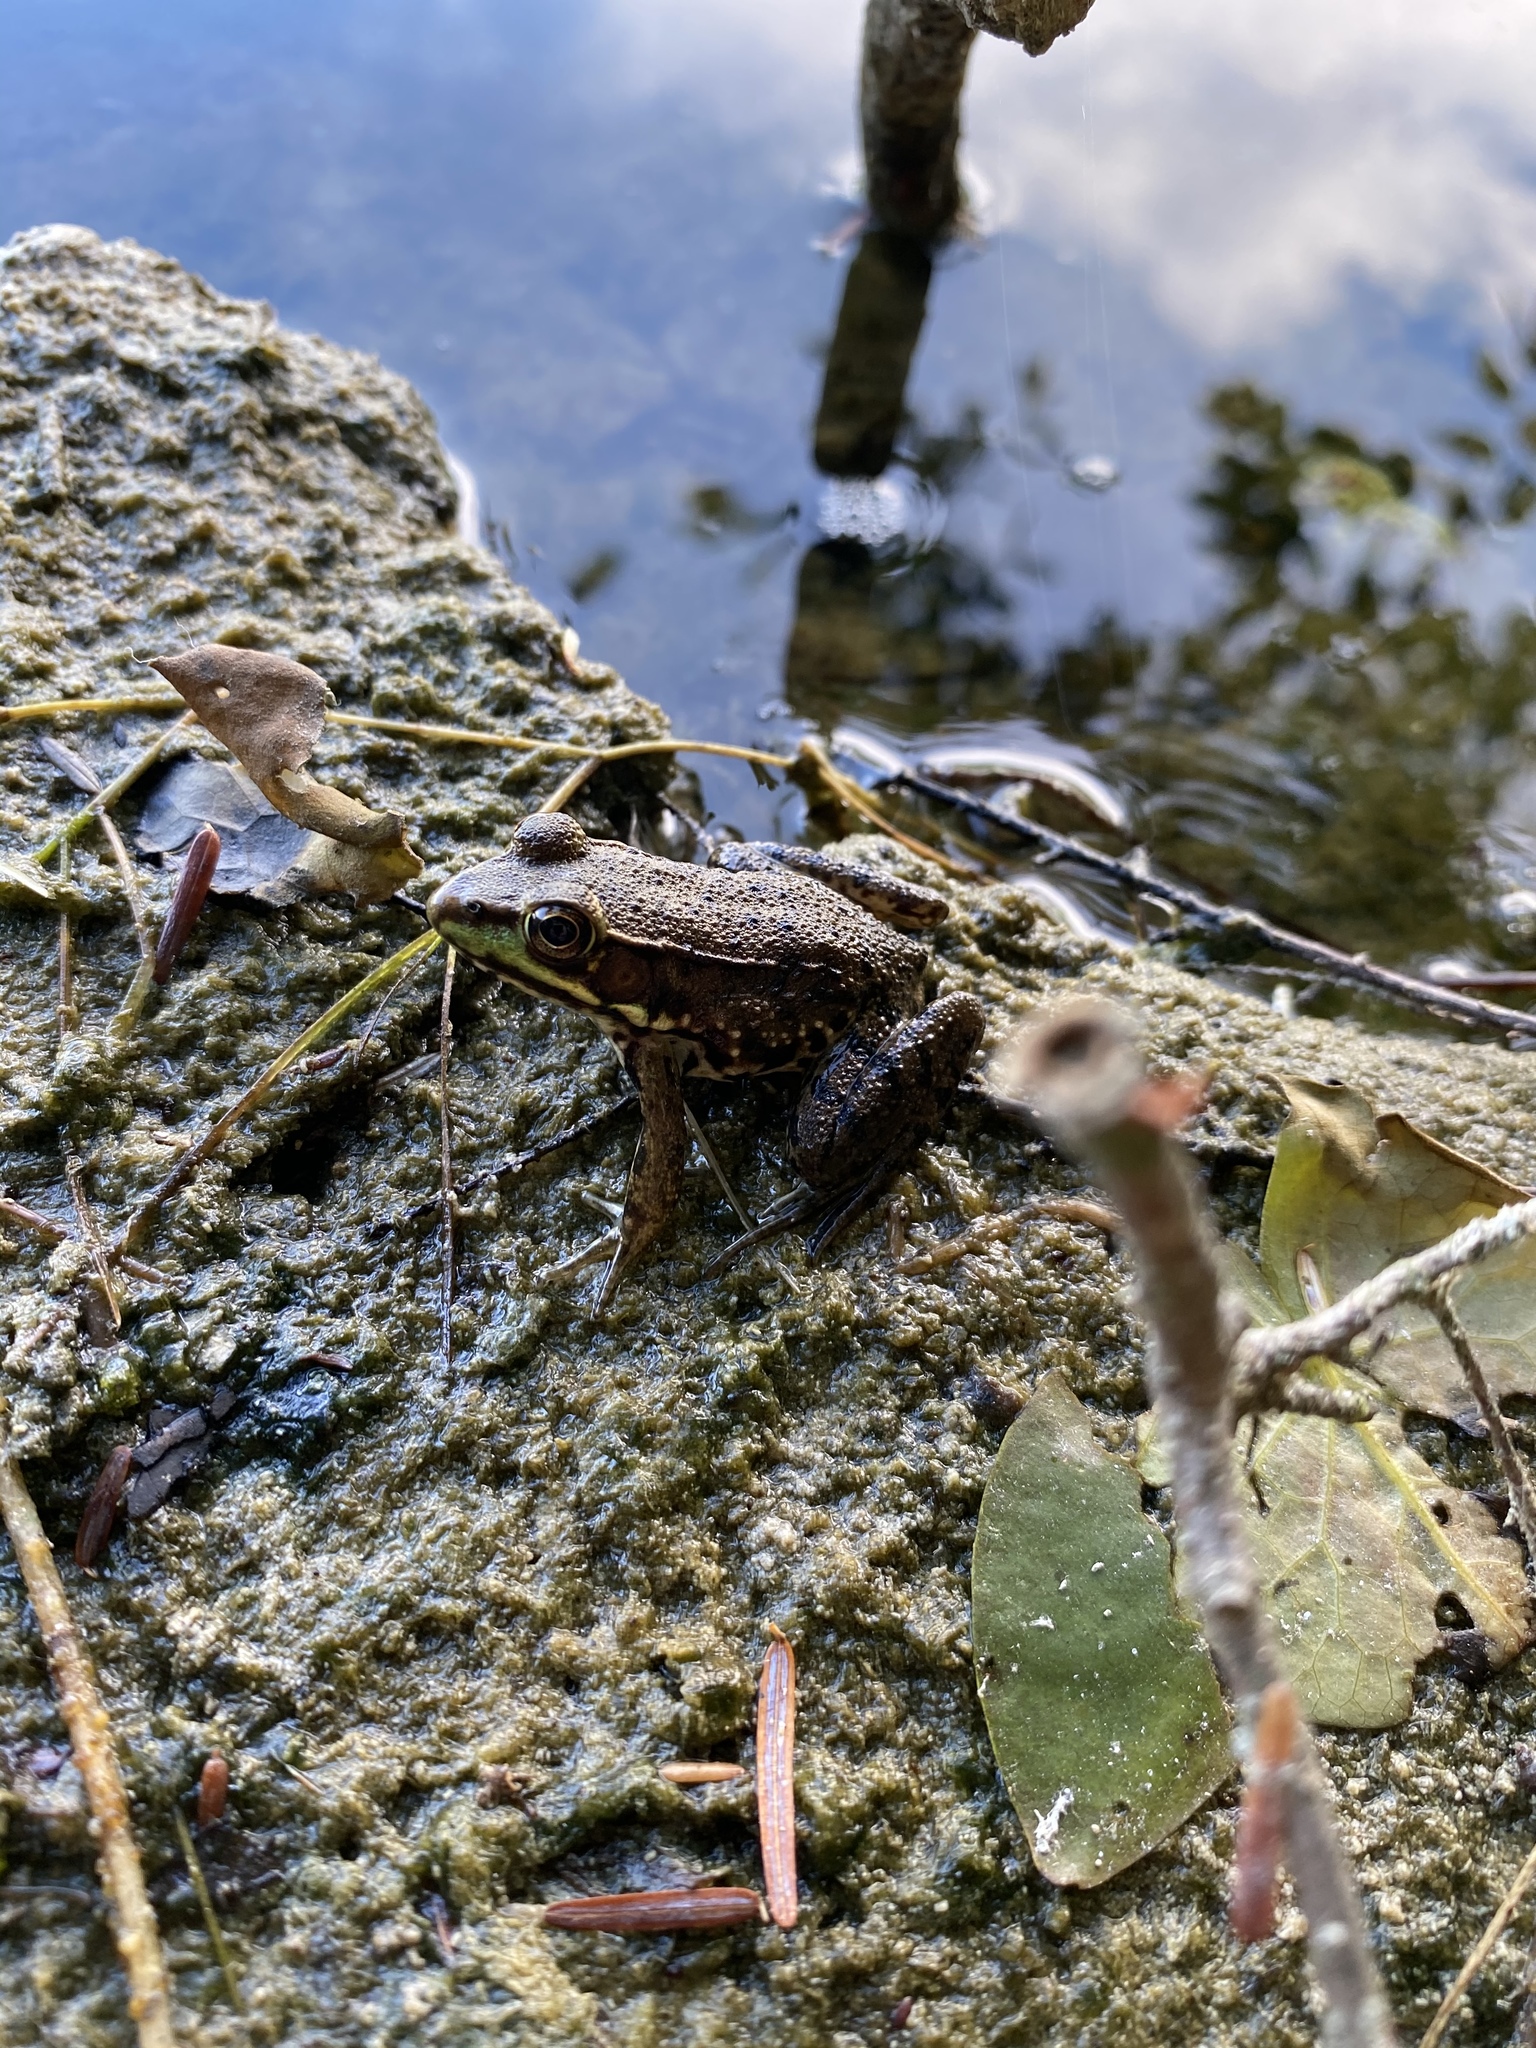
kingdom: Animalia
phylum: Chordata
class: Amphibia
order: Anura
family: Ranidae
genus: Lithobates
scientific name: Lithobates clamitans
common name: Green frog
